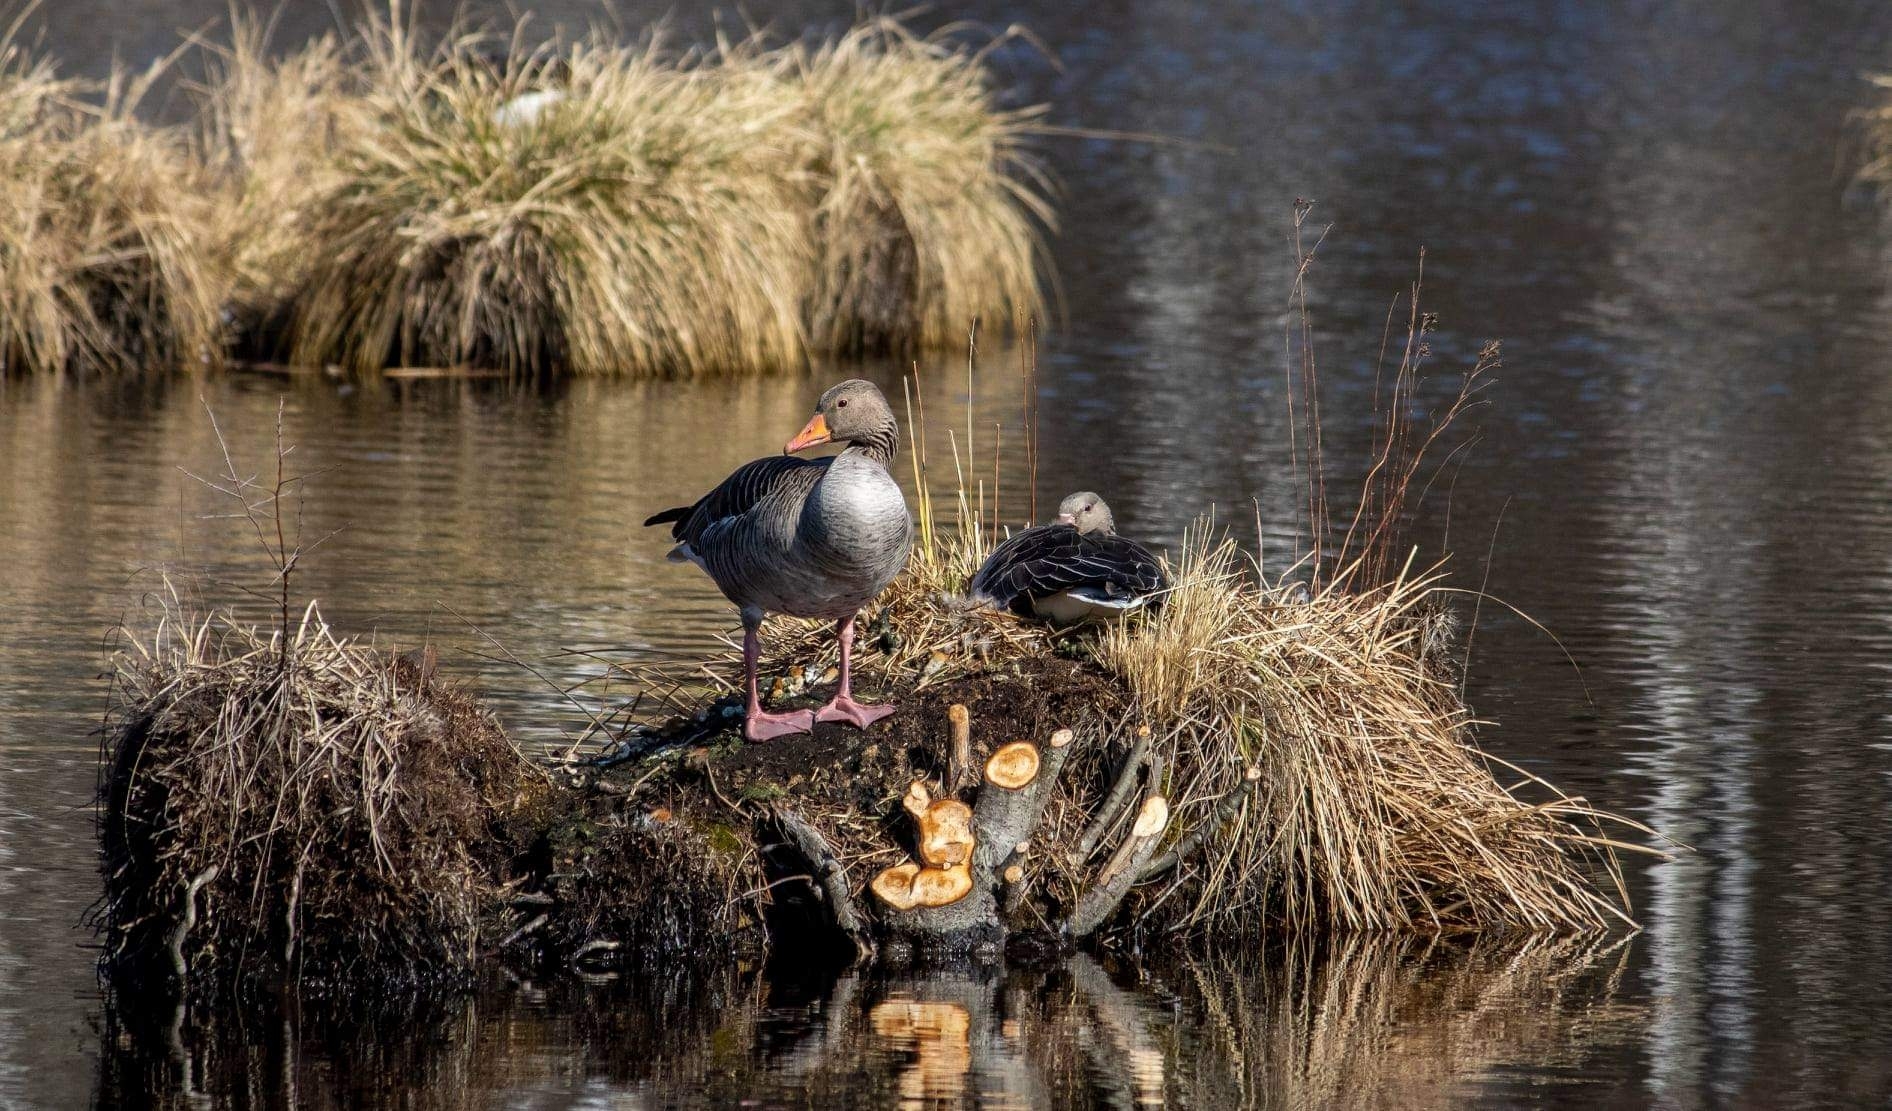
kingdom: Animalia
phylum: Chordata
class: Aves
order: Anseriformes
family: Anatidae
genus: Anser
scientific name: Anser anser
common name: Greylag goose
